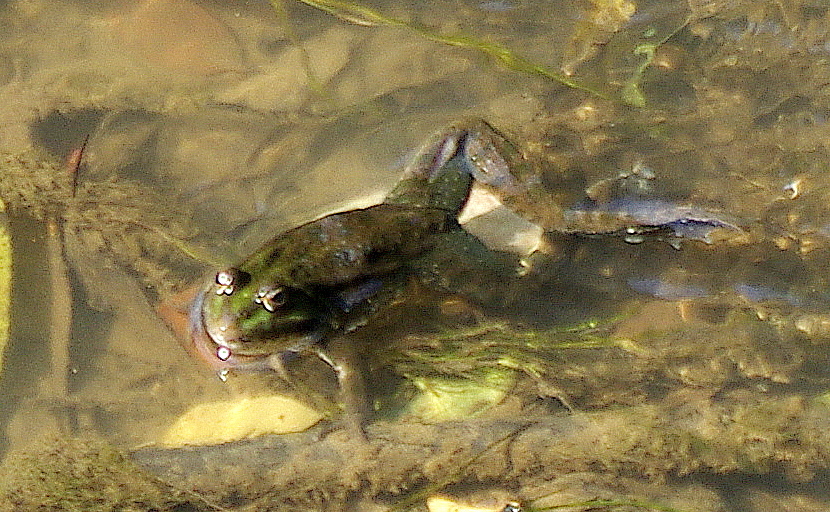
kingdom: Animalia
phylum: Chordata
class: Amphibia
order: Anura
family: Ranidae
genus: Pelophylax
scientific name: Pelophylax ridibundus
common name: Marsh frog
